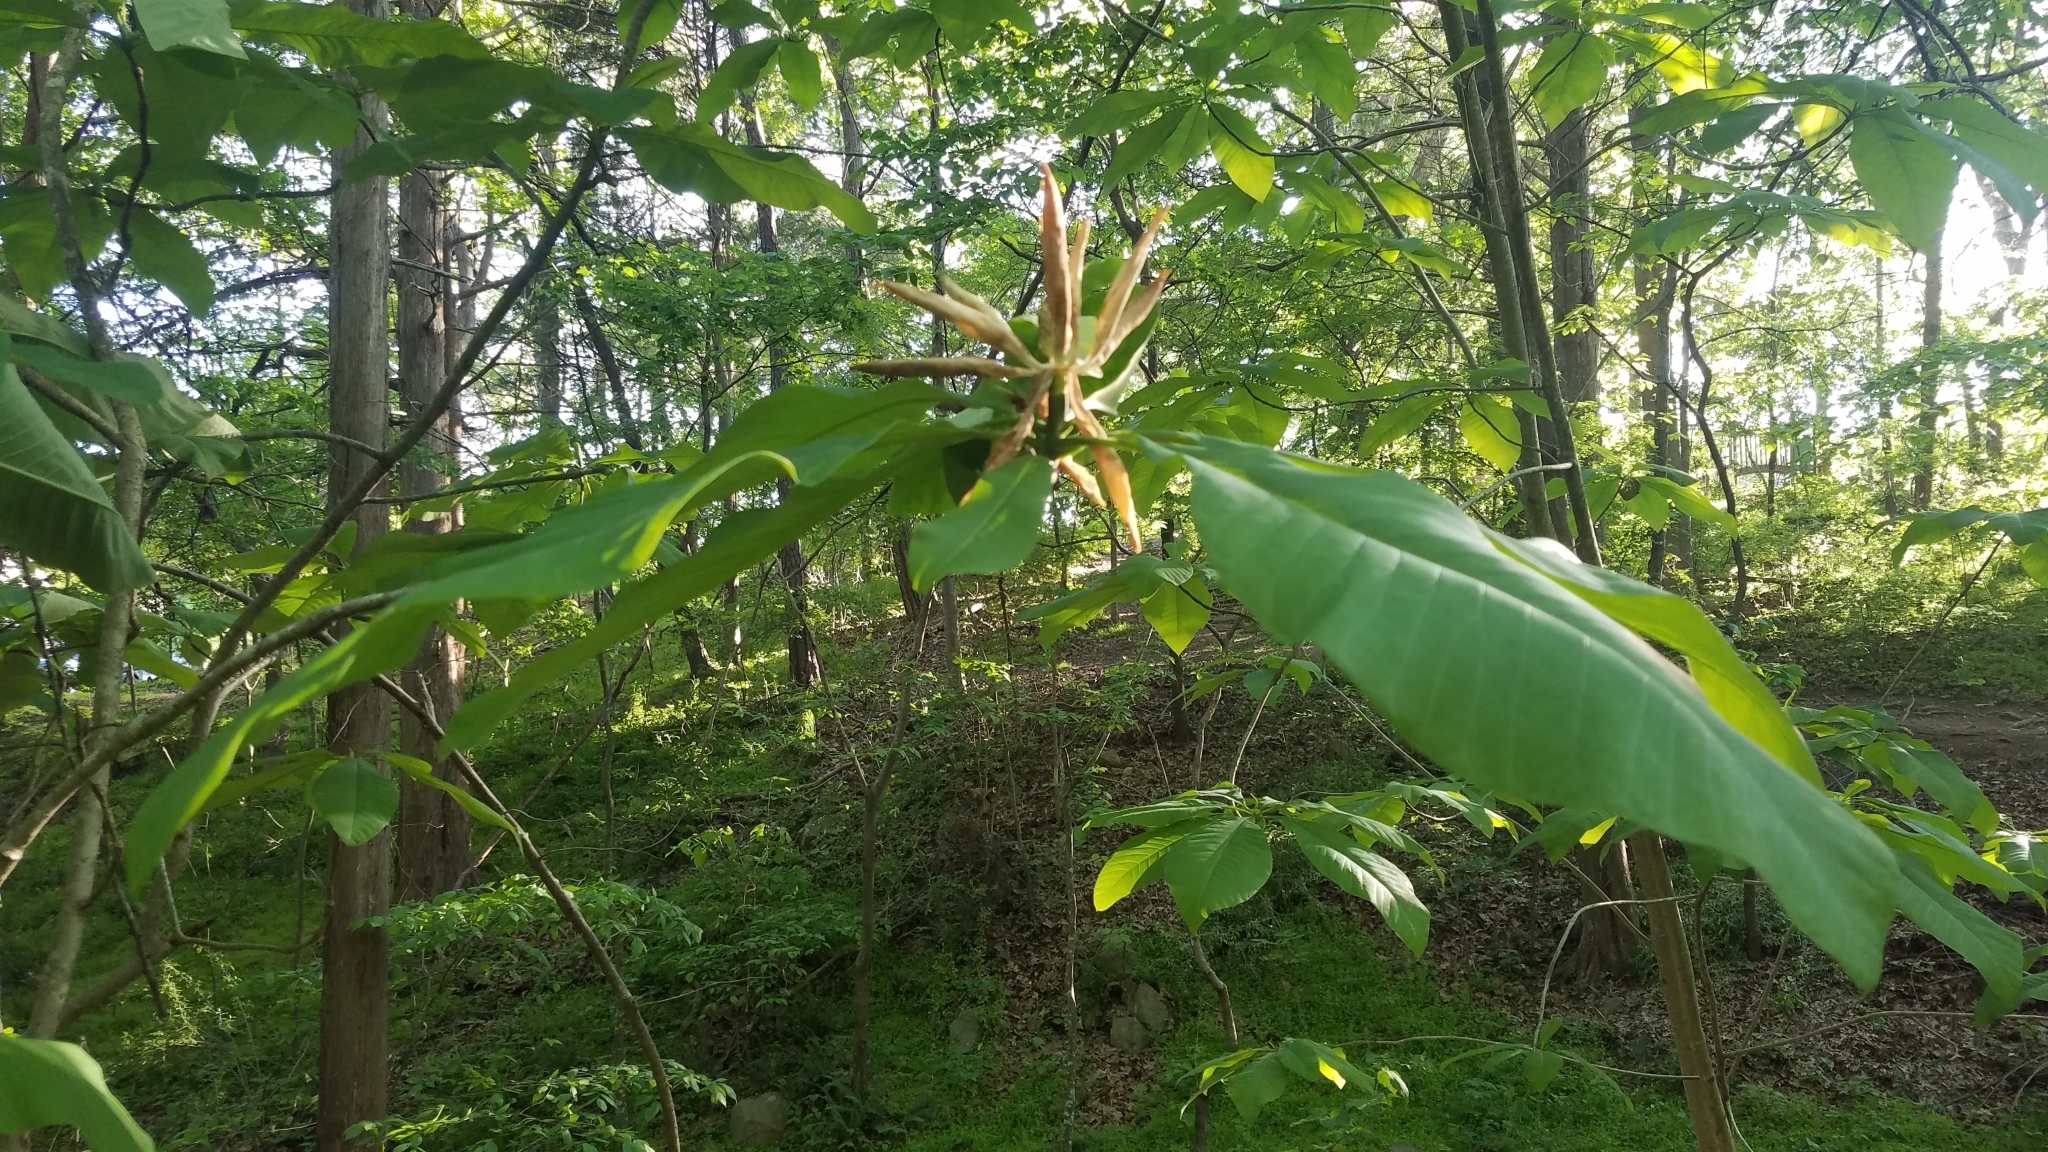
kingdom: Plantae
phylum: Tracheophyta
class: Magnoliopsida
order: Magnoliales
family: Magnoliaceae
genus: Magnolia
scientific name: Magnolia tripetala
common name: Umbrella magnolia
